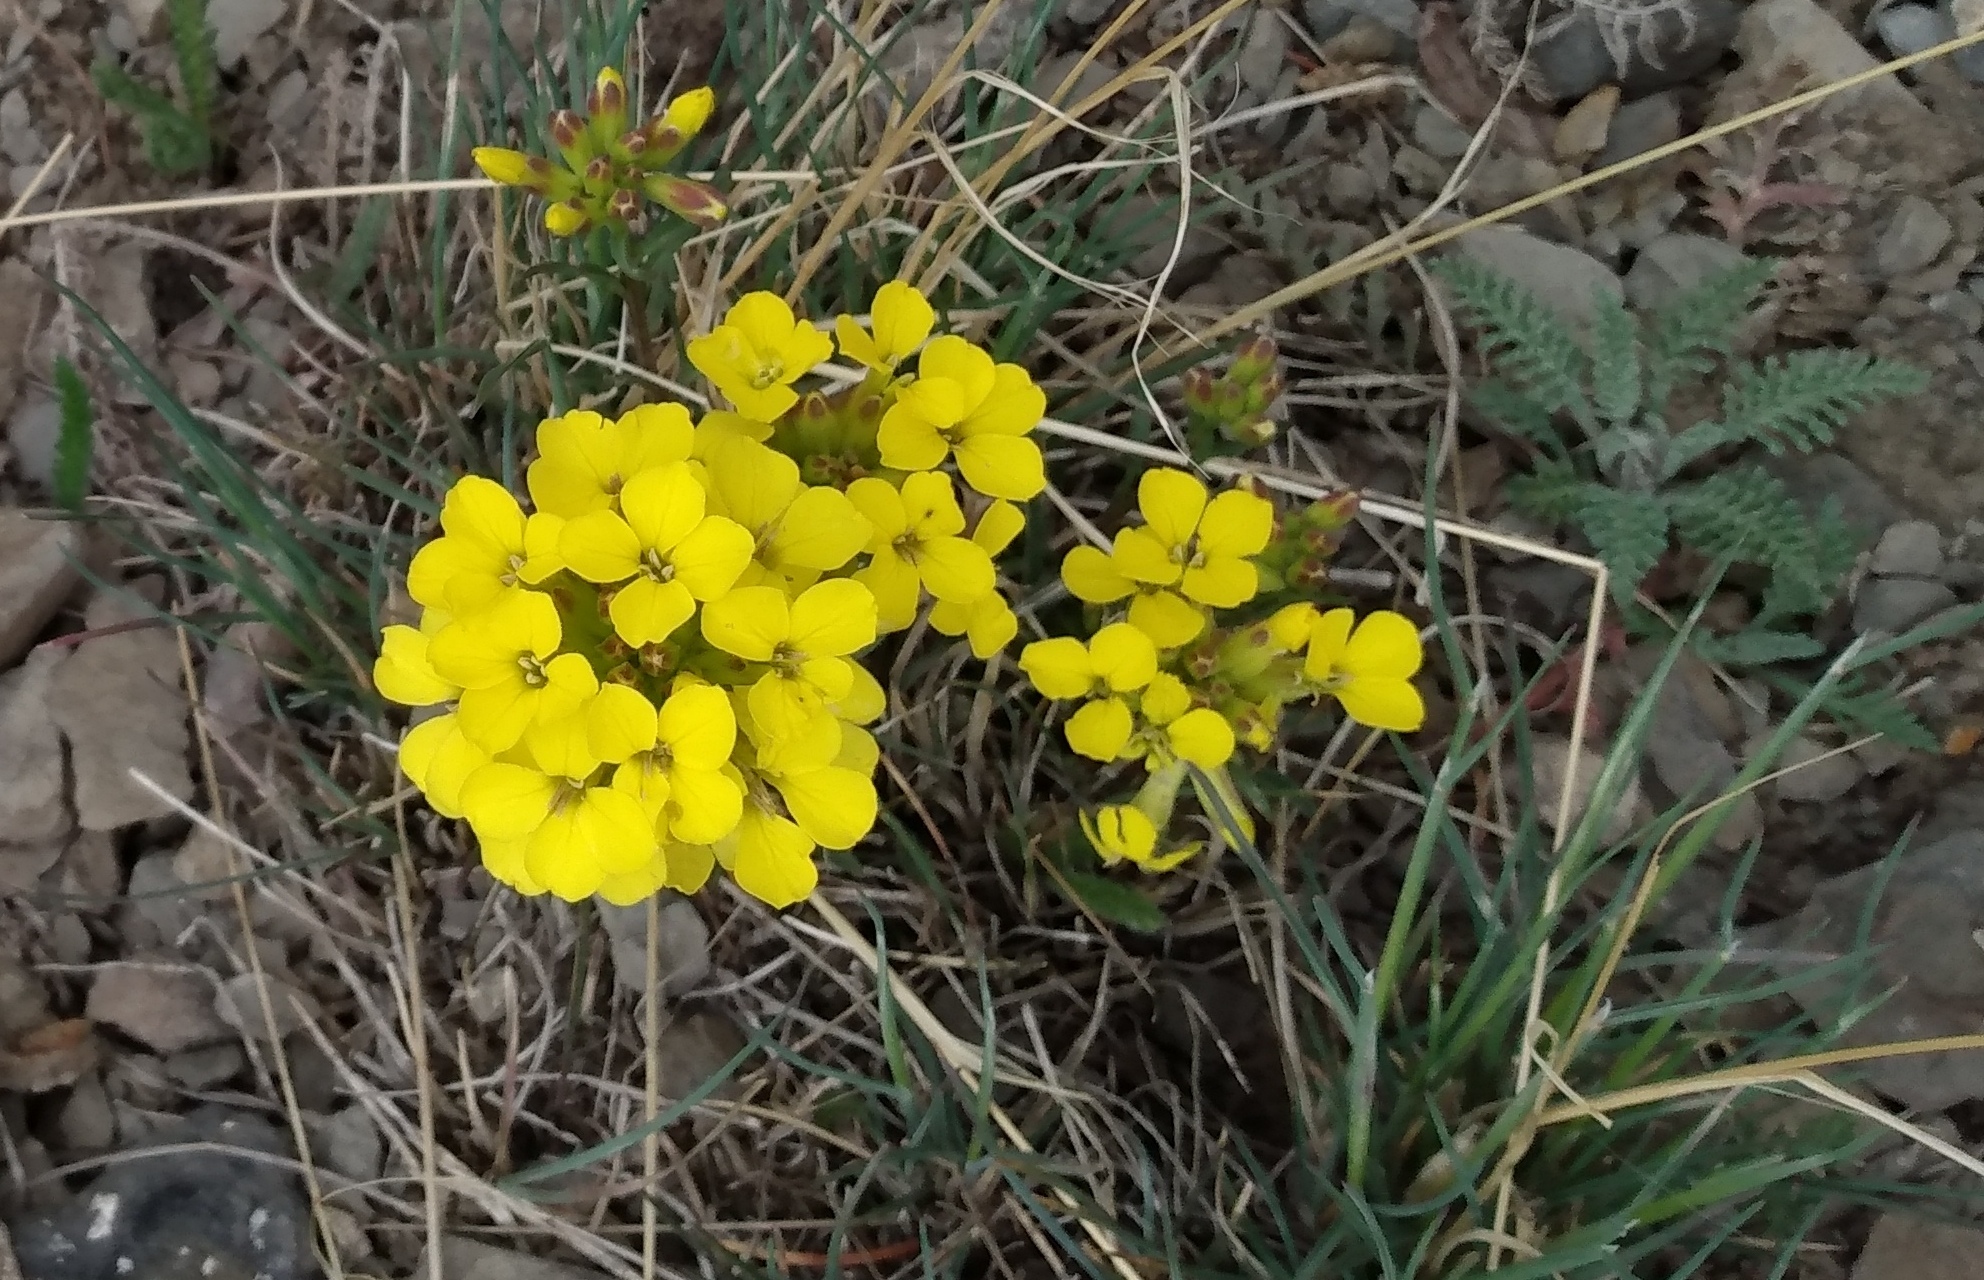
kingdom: Plantae
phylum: Tracheophyta
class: Magnoliopsida
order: Brassicales
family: Brassicaceae
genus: Erysimum
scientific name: Erysimum capitatum
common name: Western wallflower
